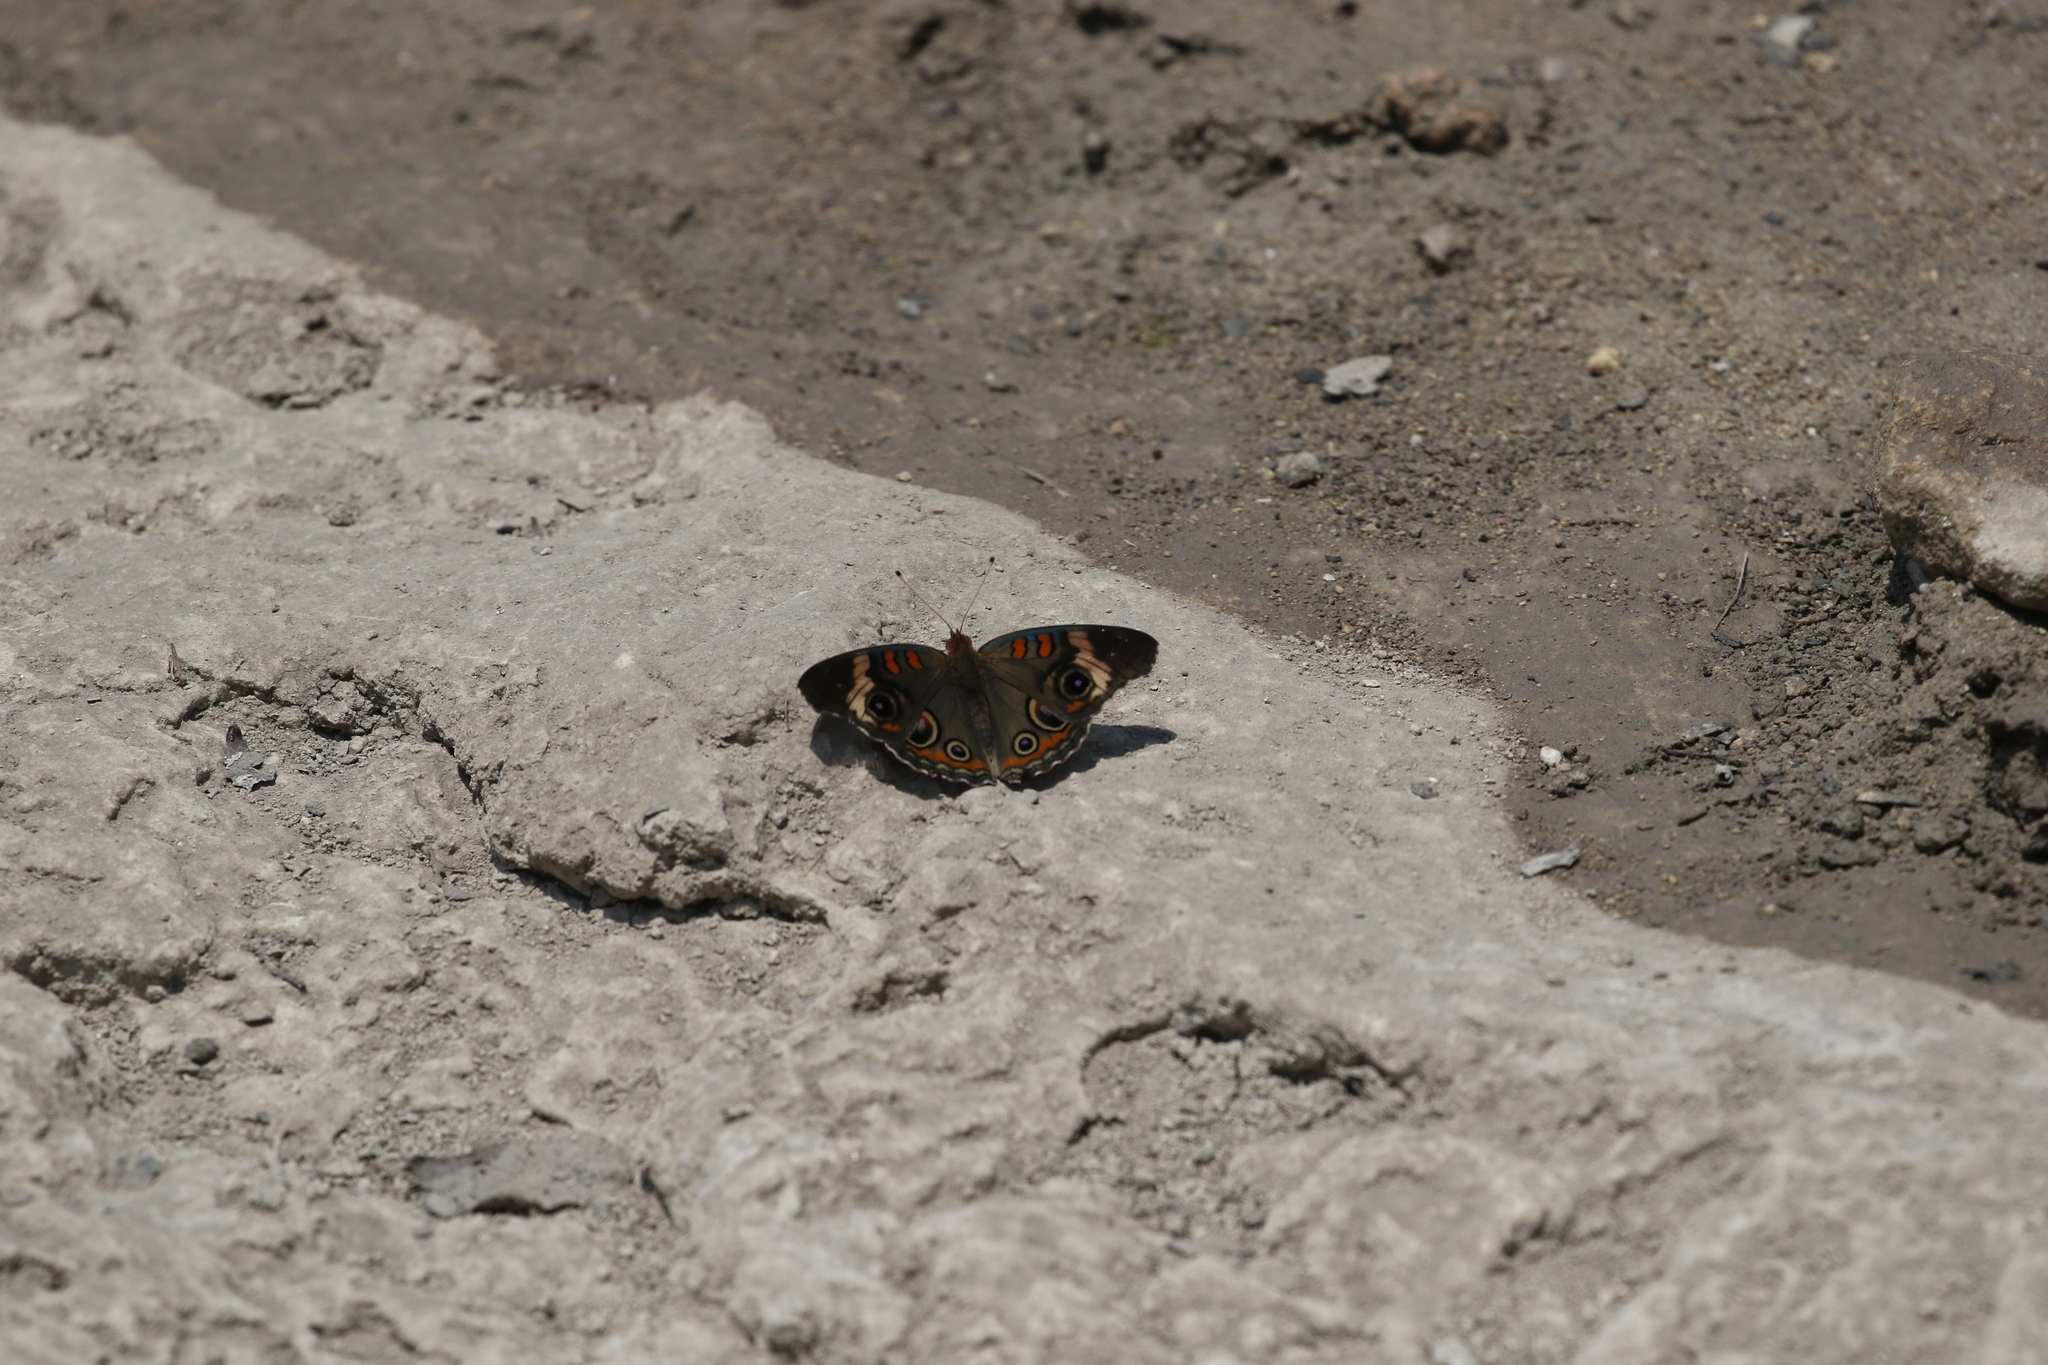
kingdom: Animalia
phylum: Arthropoda
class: Insecta
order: Lepidoptera
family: Nymphalidae
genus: Junonia
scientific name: Junonia coenia
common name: Common buckeye
